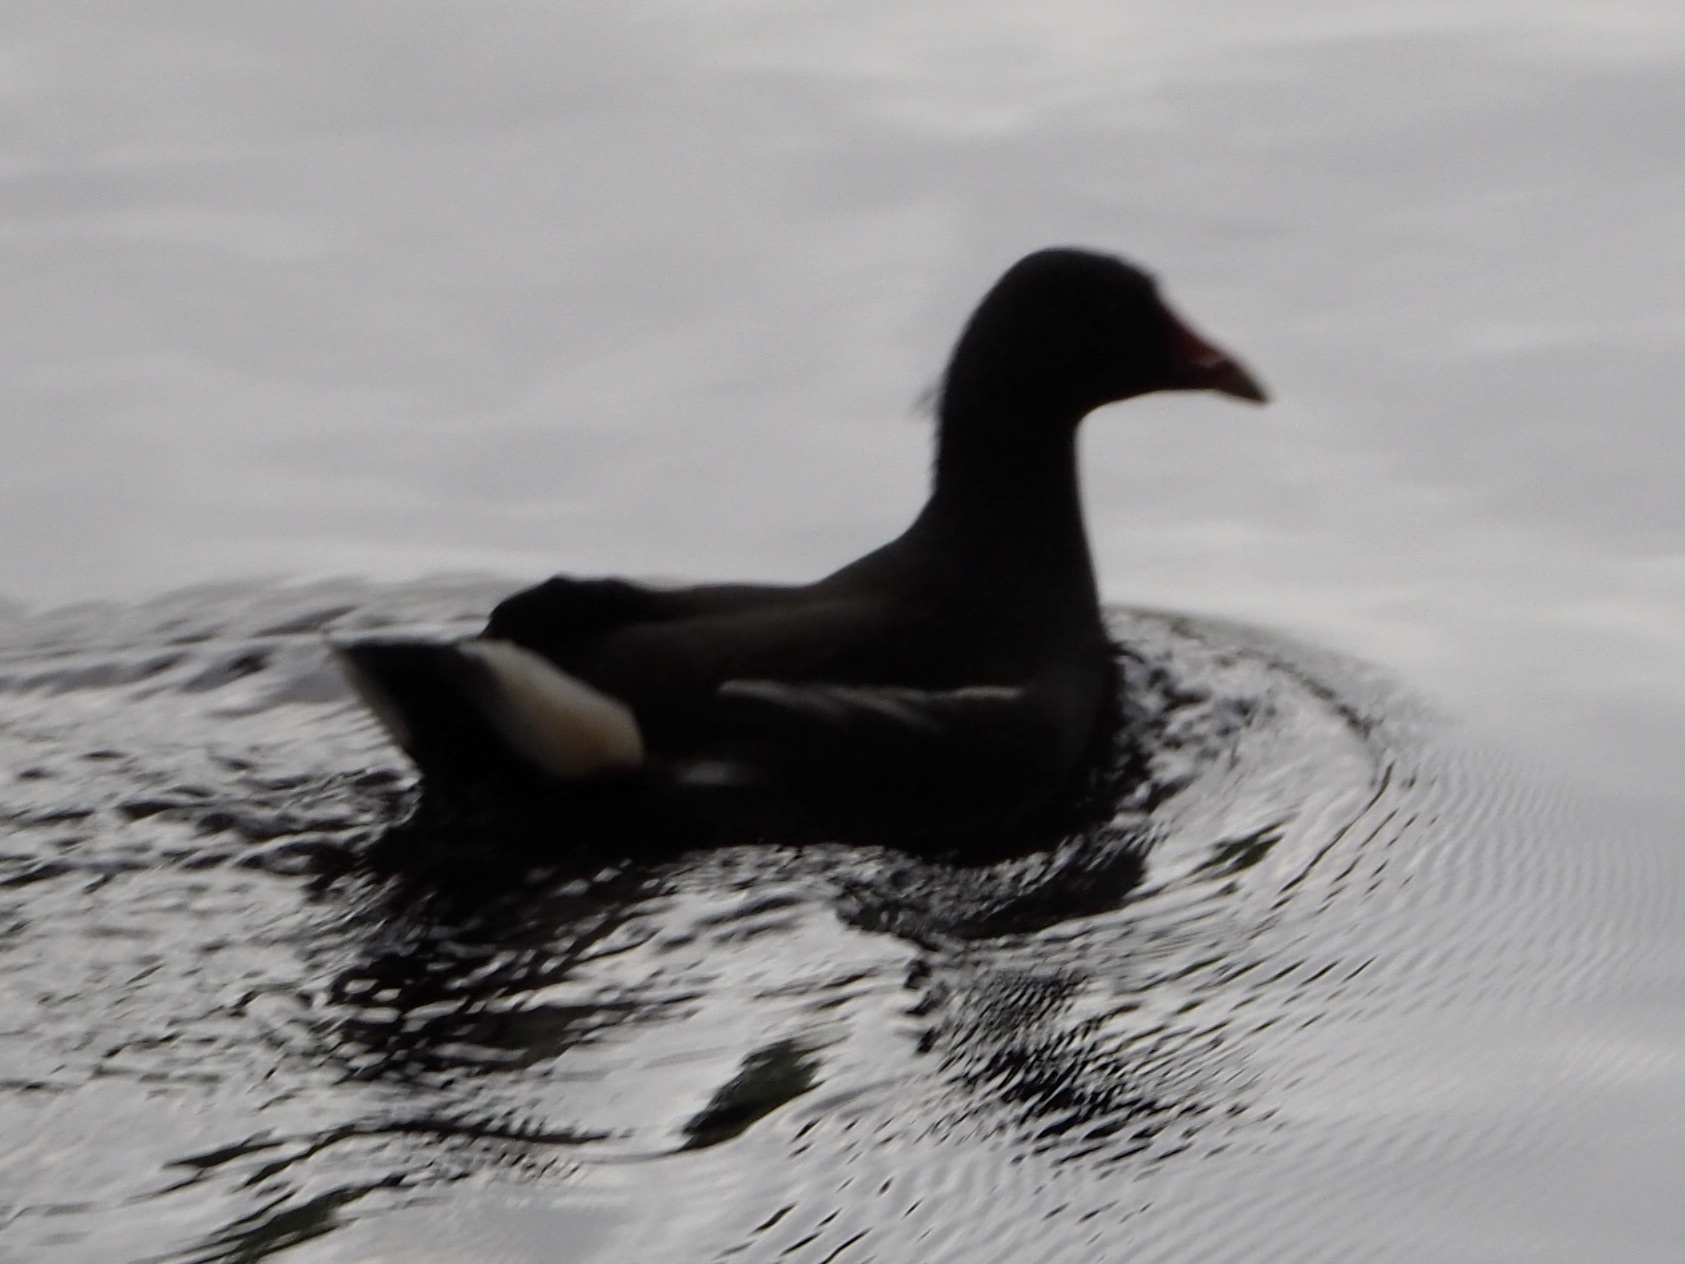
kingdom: Animalia
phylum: Chordata
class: Aves
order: Gruiformes
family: Rallidae
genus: Gallinula
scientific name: Gallinula chloropus
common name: Common moorhen
